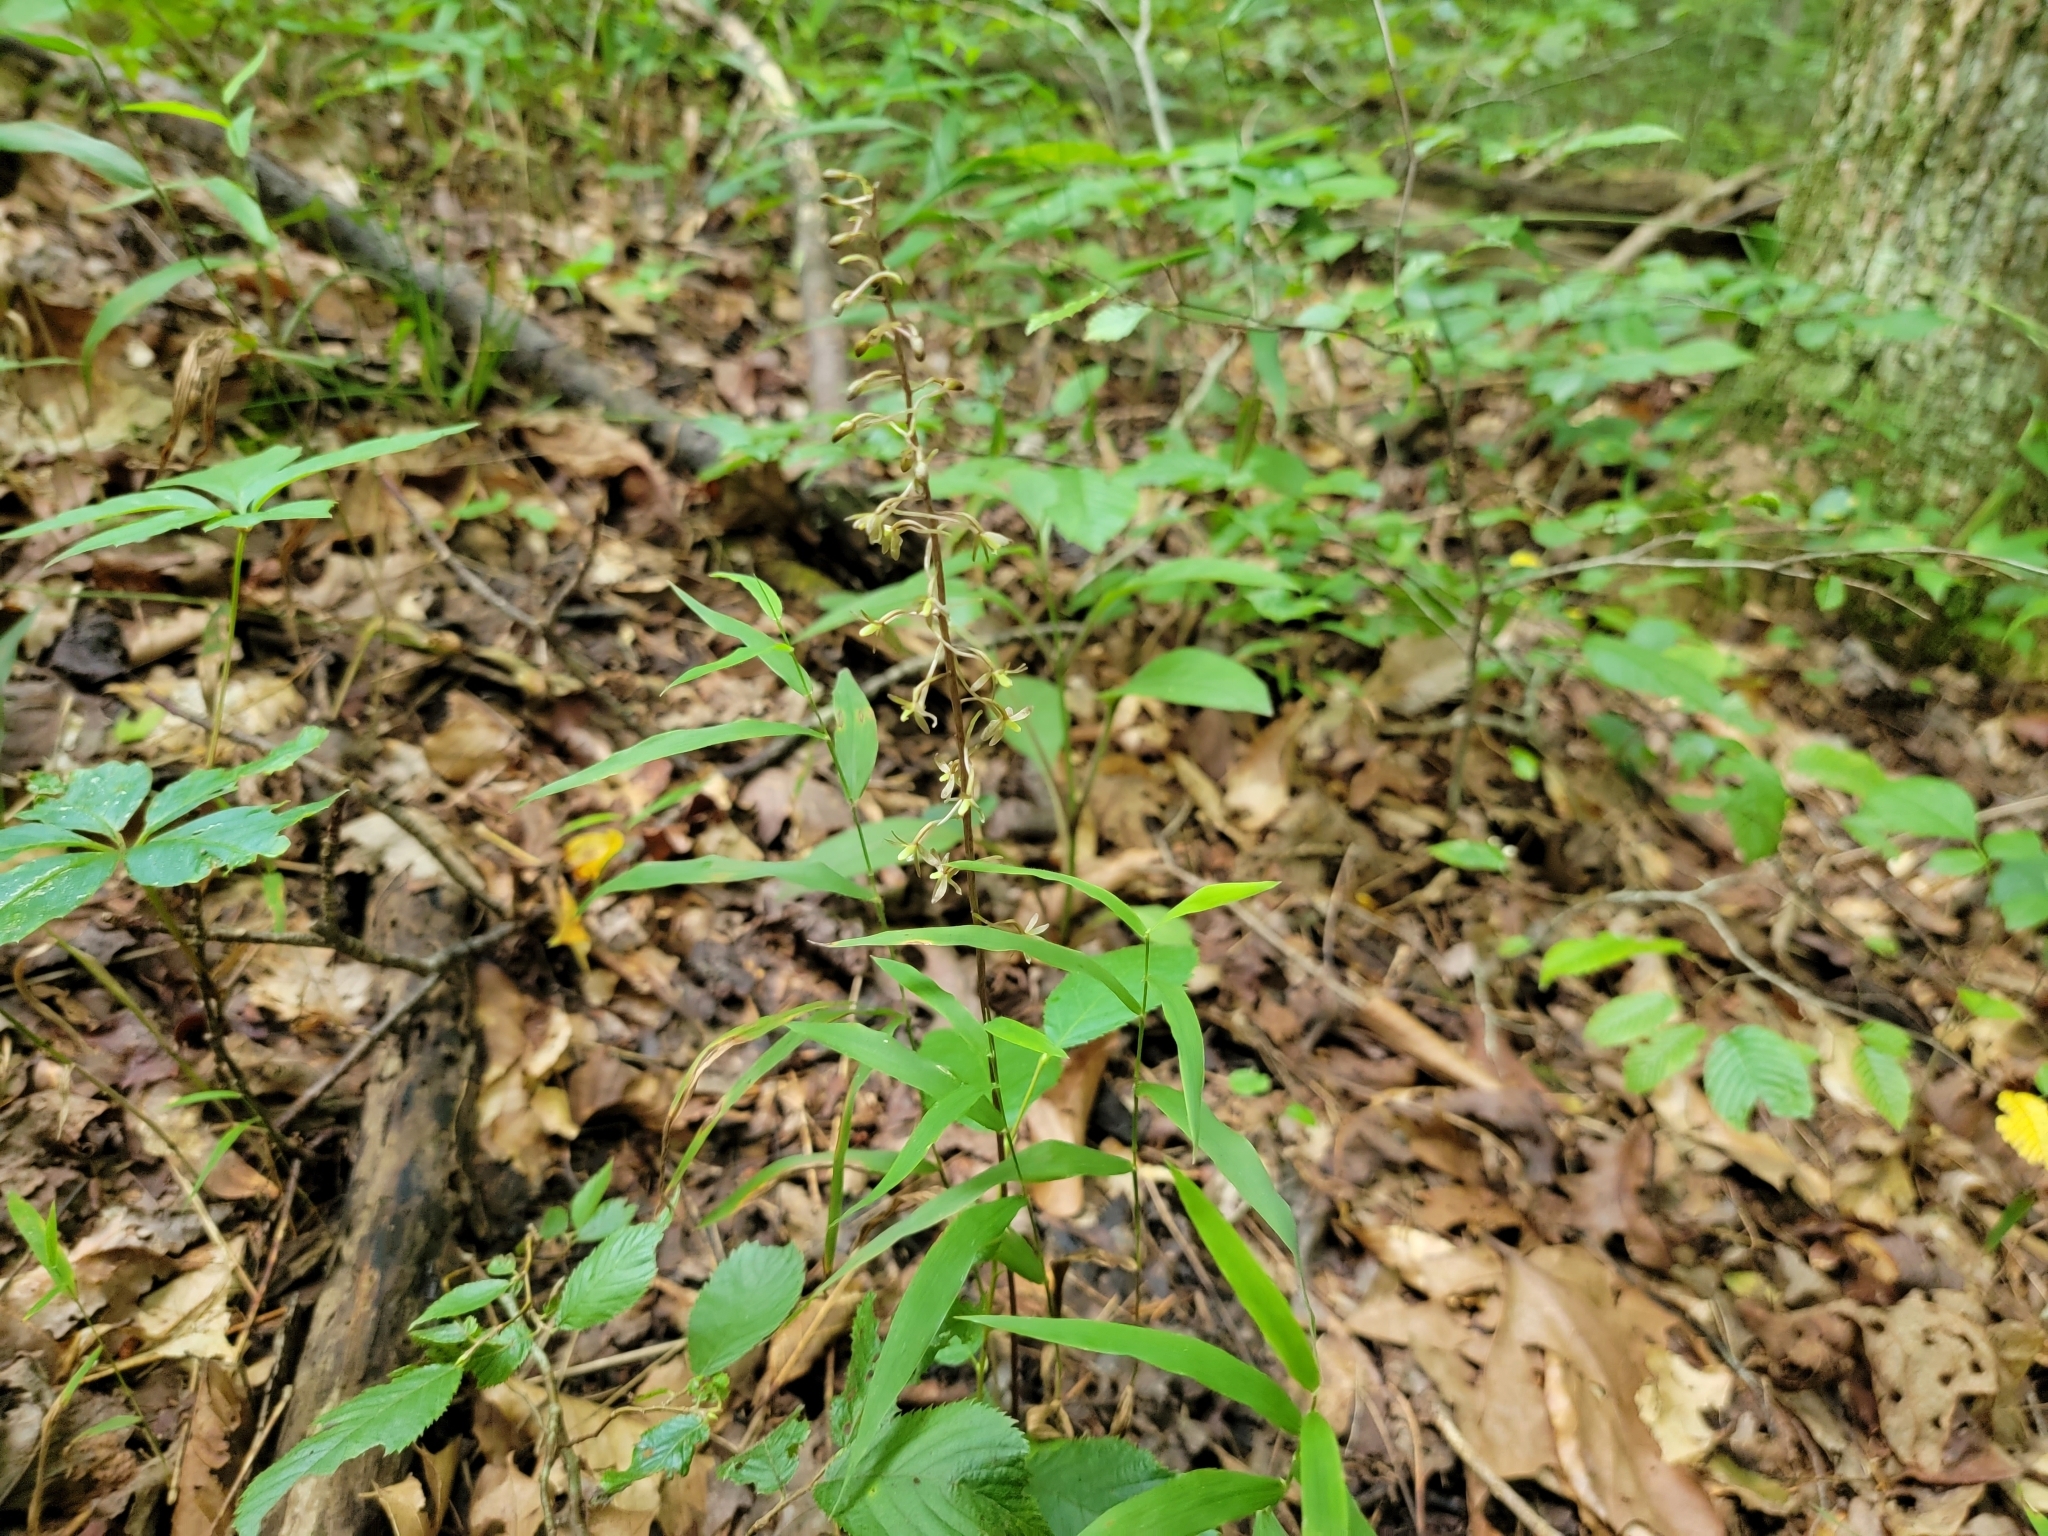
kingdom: Plantae
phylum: Tracheophyta
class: Liliopsida
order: Asparagales
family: Orchidaceae
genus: Tipularia
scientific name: Tipularia discolor
